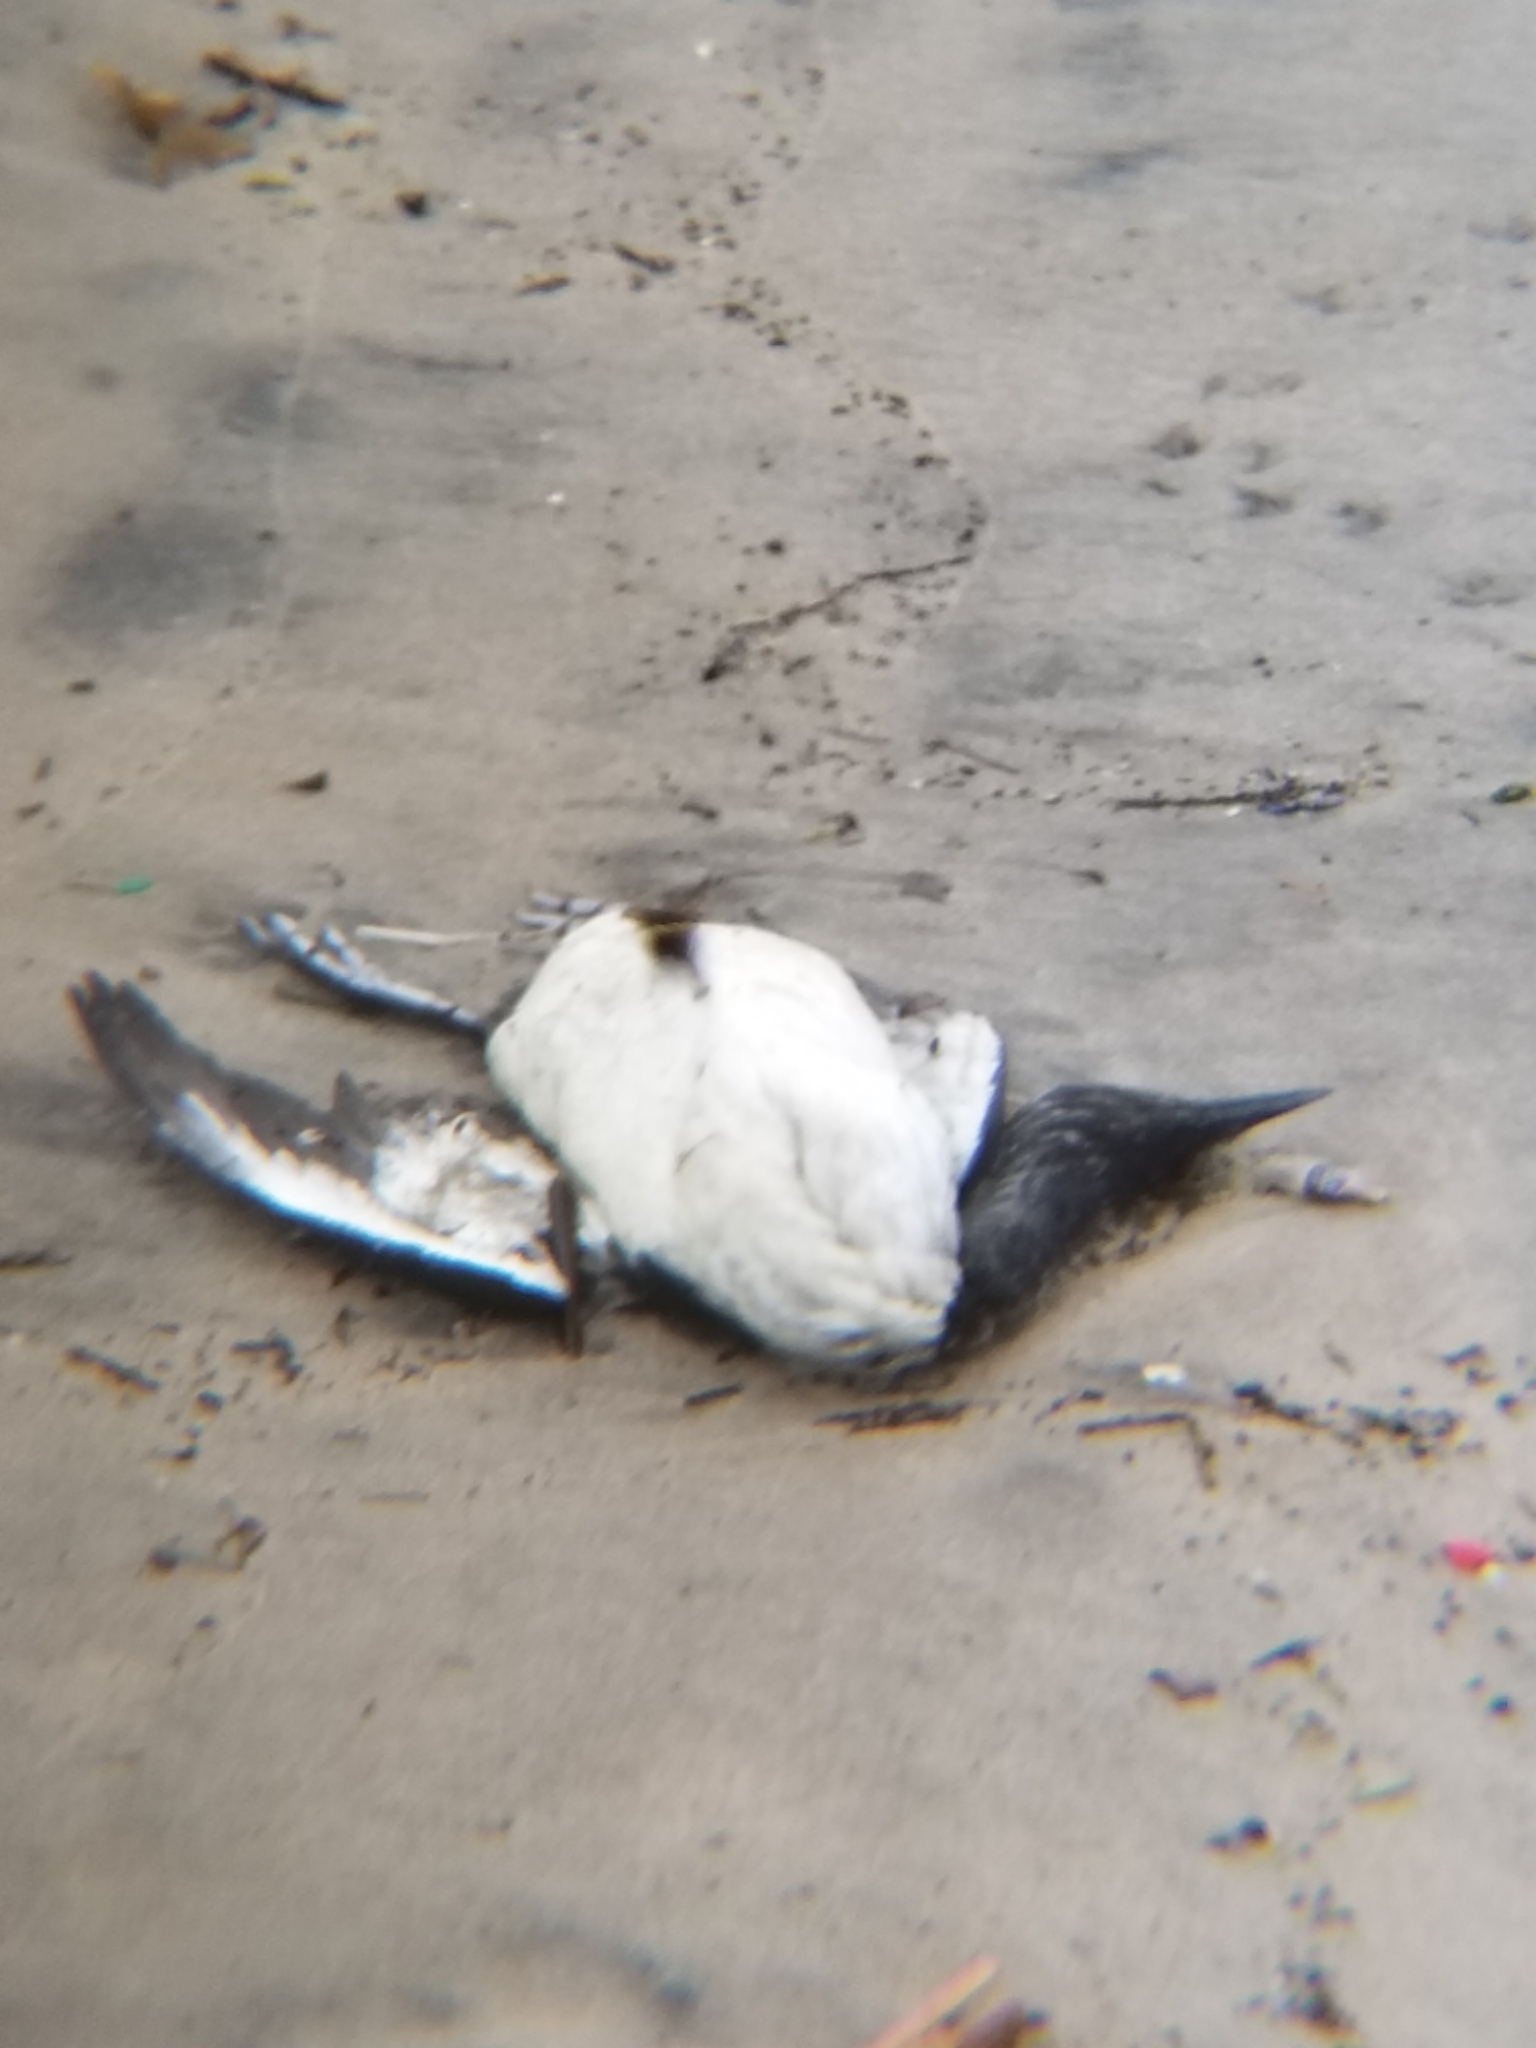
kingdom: Animalia
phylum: Chordata
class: Aves
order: Charadriiformes
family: Alcidae
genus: Uria
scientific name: Uria aalge
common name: Common murre
